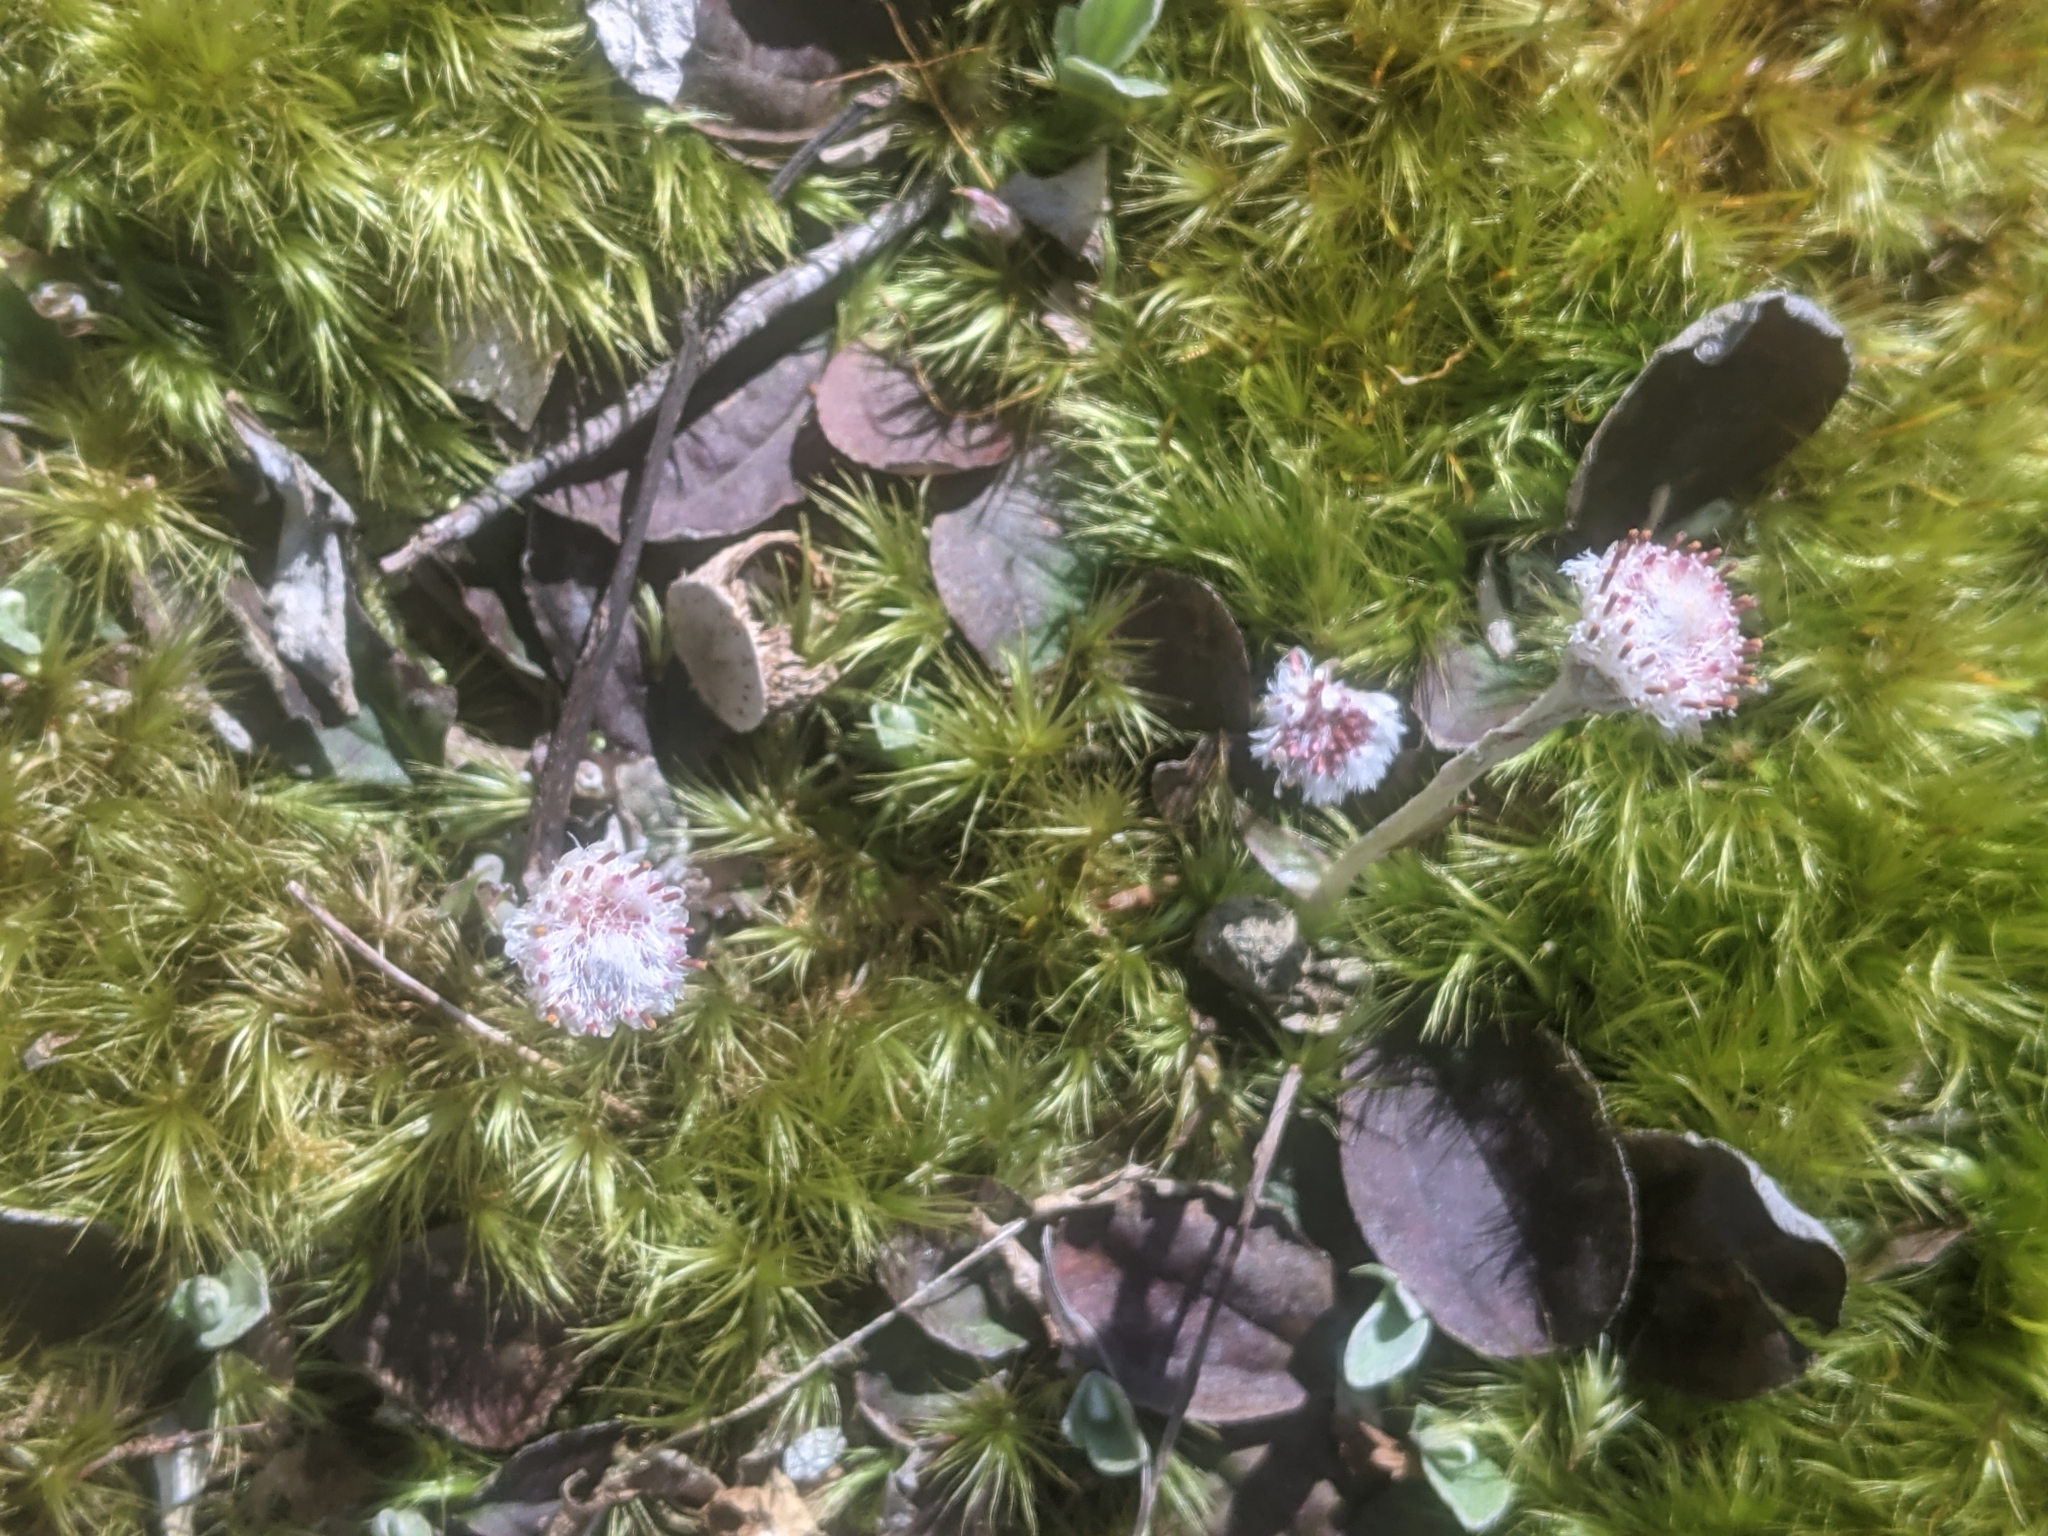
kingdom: Plantae
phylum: Tracheophyta
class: Magnoliopsida
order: Asterales
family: Asteraceae
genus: Antennaria
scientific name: Antennaria solitaria
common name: Single-head pussytoes
